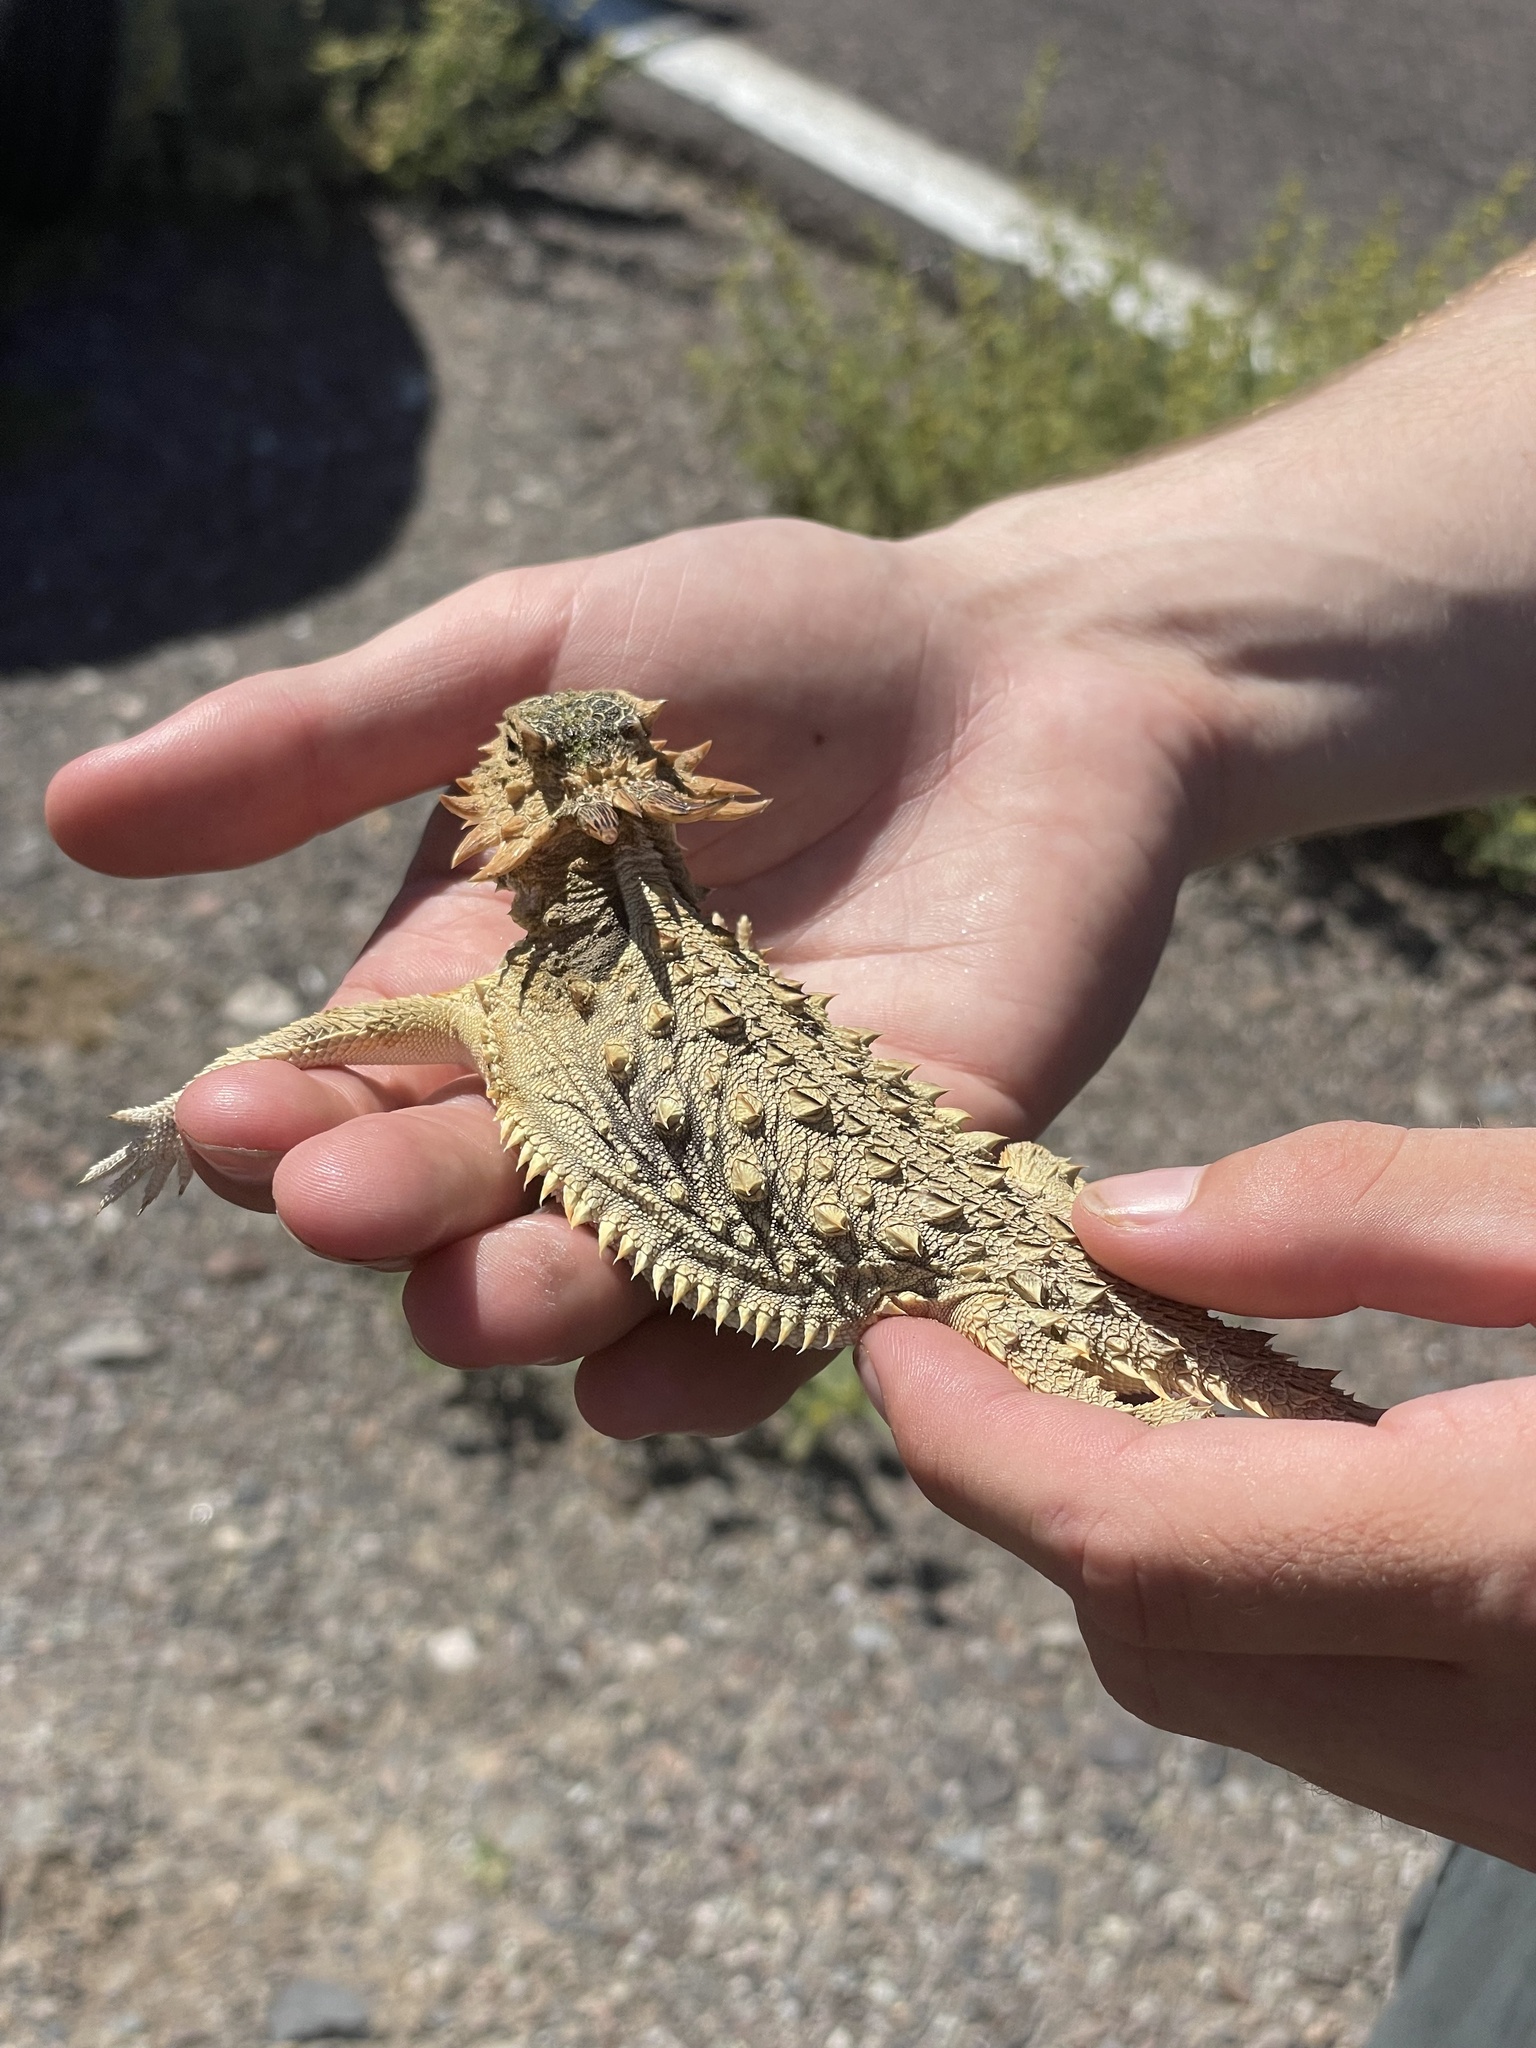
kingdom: Animalia
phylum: Chordata
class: Squamata
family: Phrynosomatidae
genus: Phrynosoma
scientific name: Phrynosoma coronatum
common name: Blainville horned lizard
